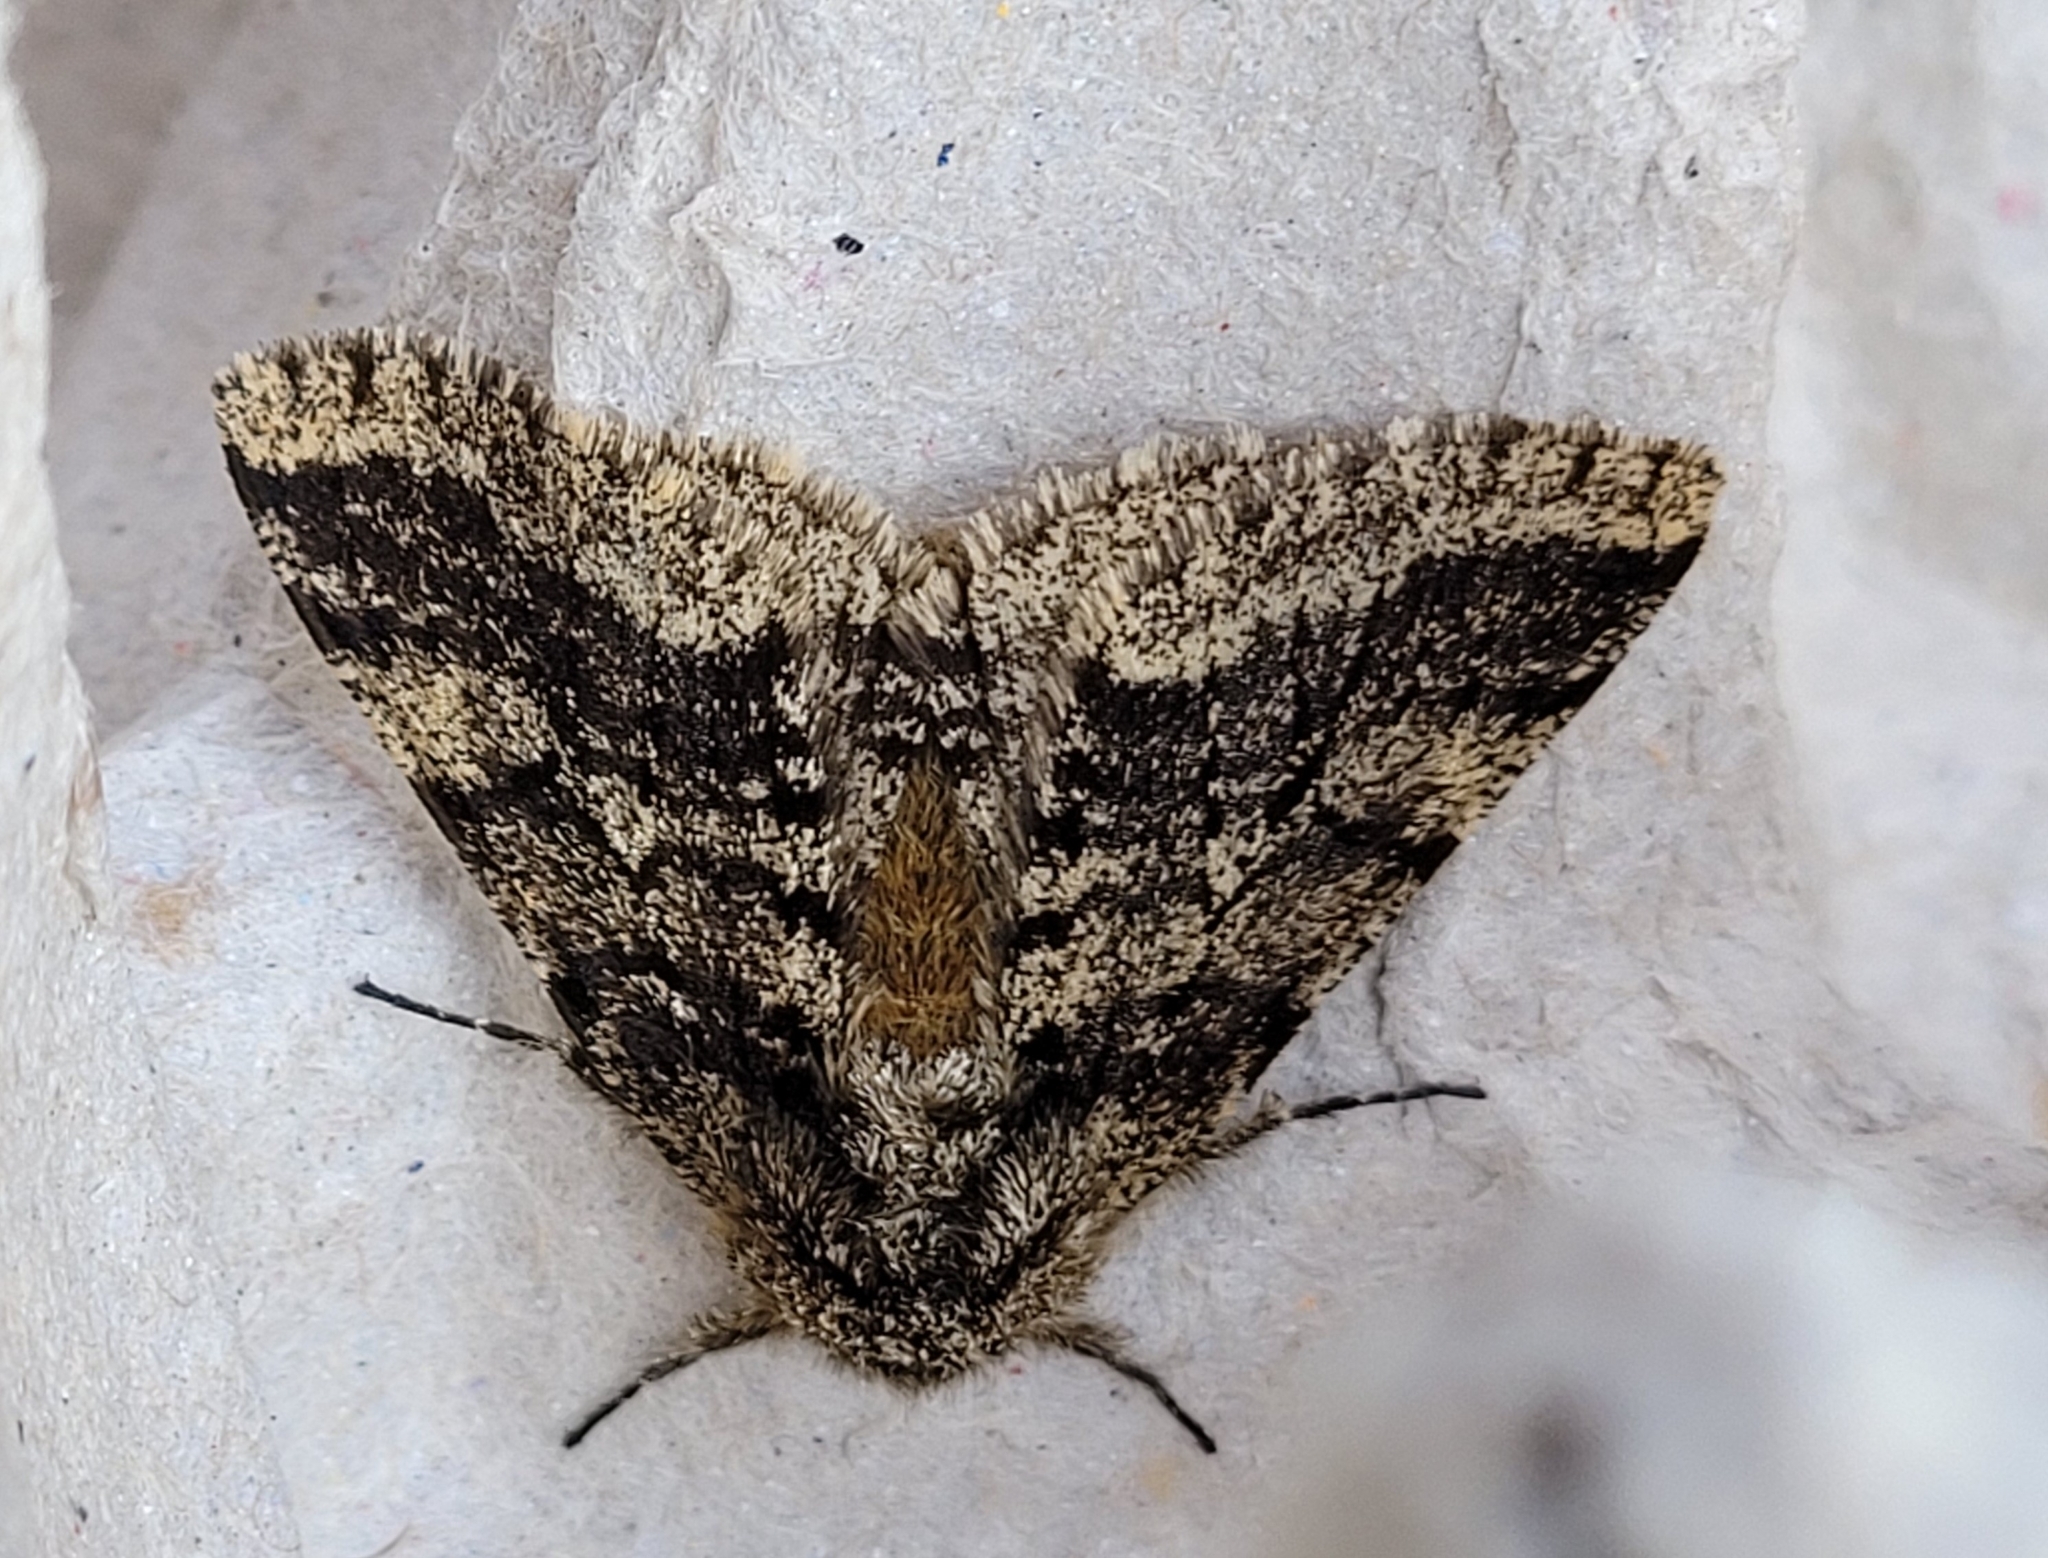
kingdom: Animalia
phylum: Arthropoda
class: Insecta
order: Lepidoptera
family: Geometridae
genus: Lycia
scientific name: Lycia hirtaria
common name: Brindled beauty
